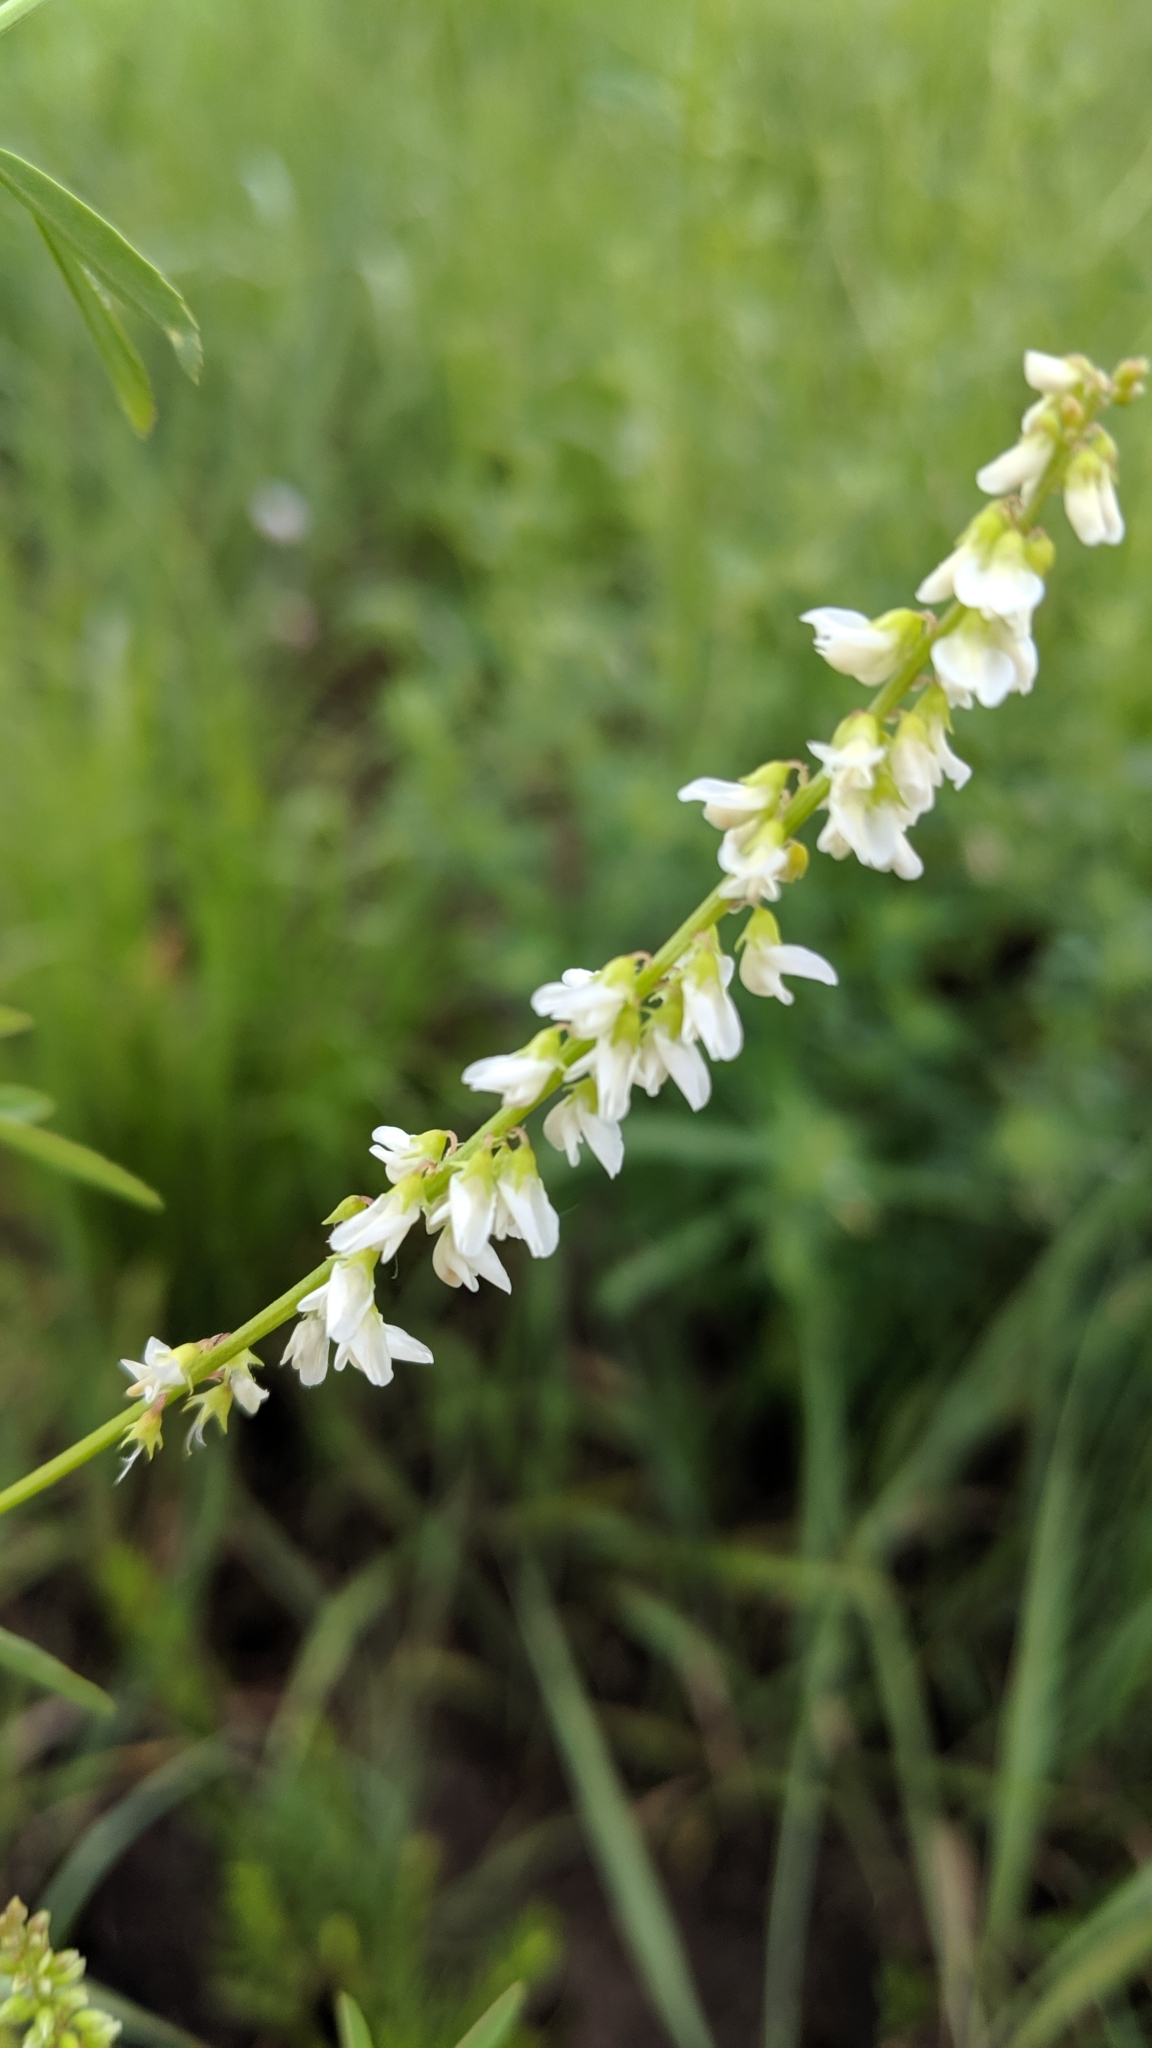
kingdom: Plantae
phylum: Tracheophyta
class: Magnoliopsida
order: Fabales
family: Fabaceae
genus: Melilotus
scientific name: Melilotus albus
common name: White melilot
